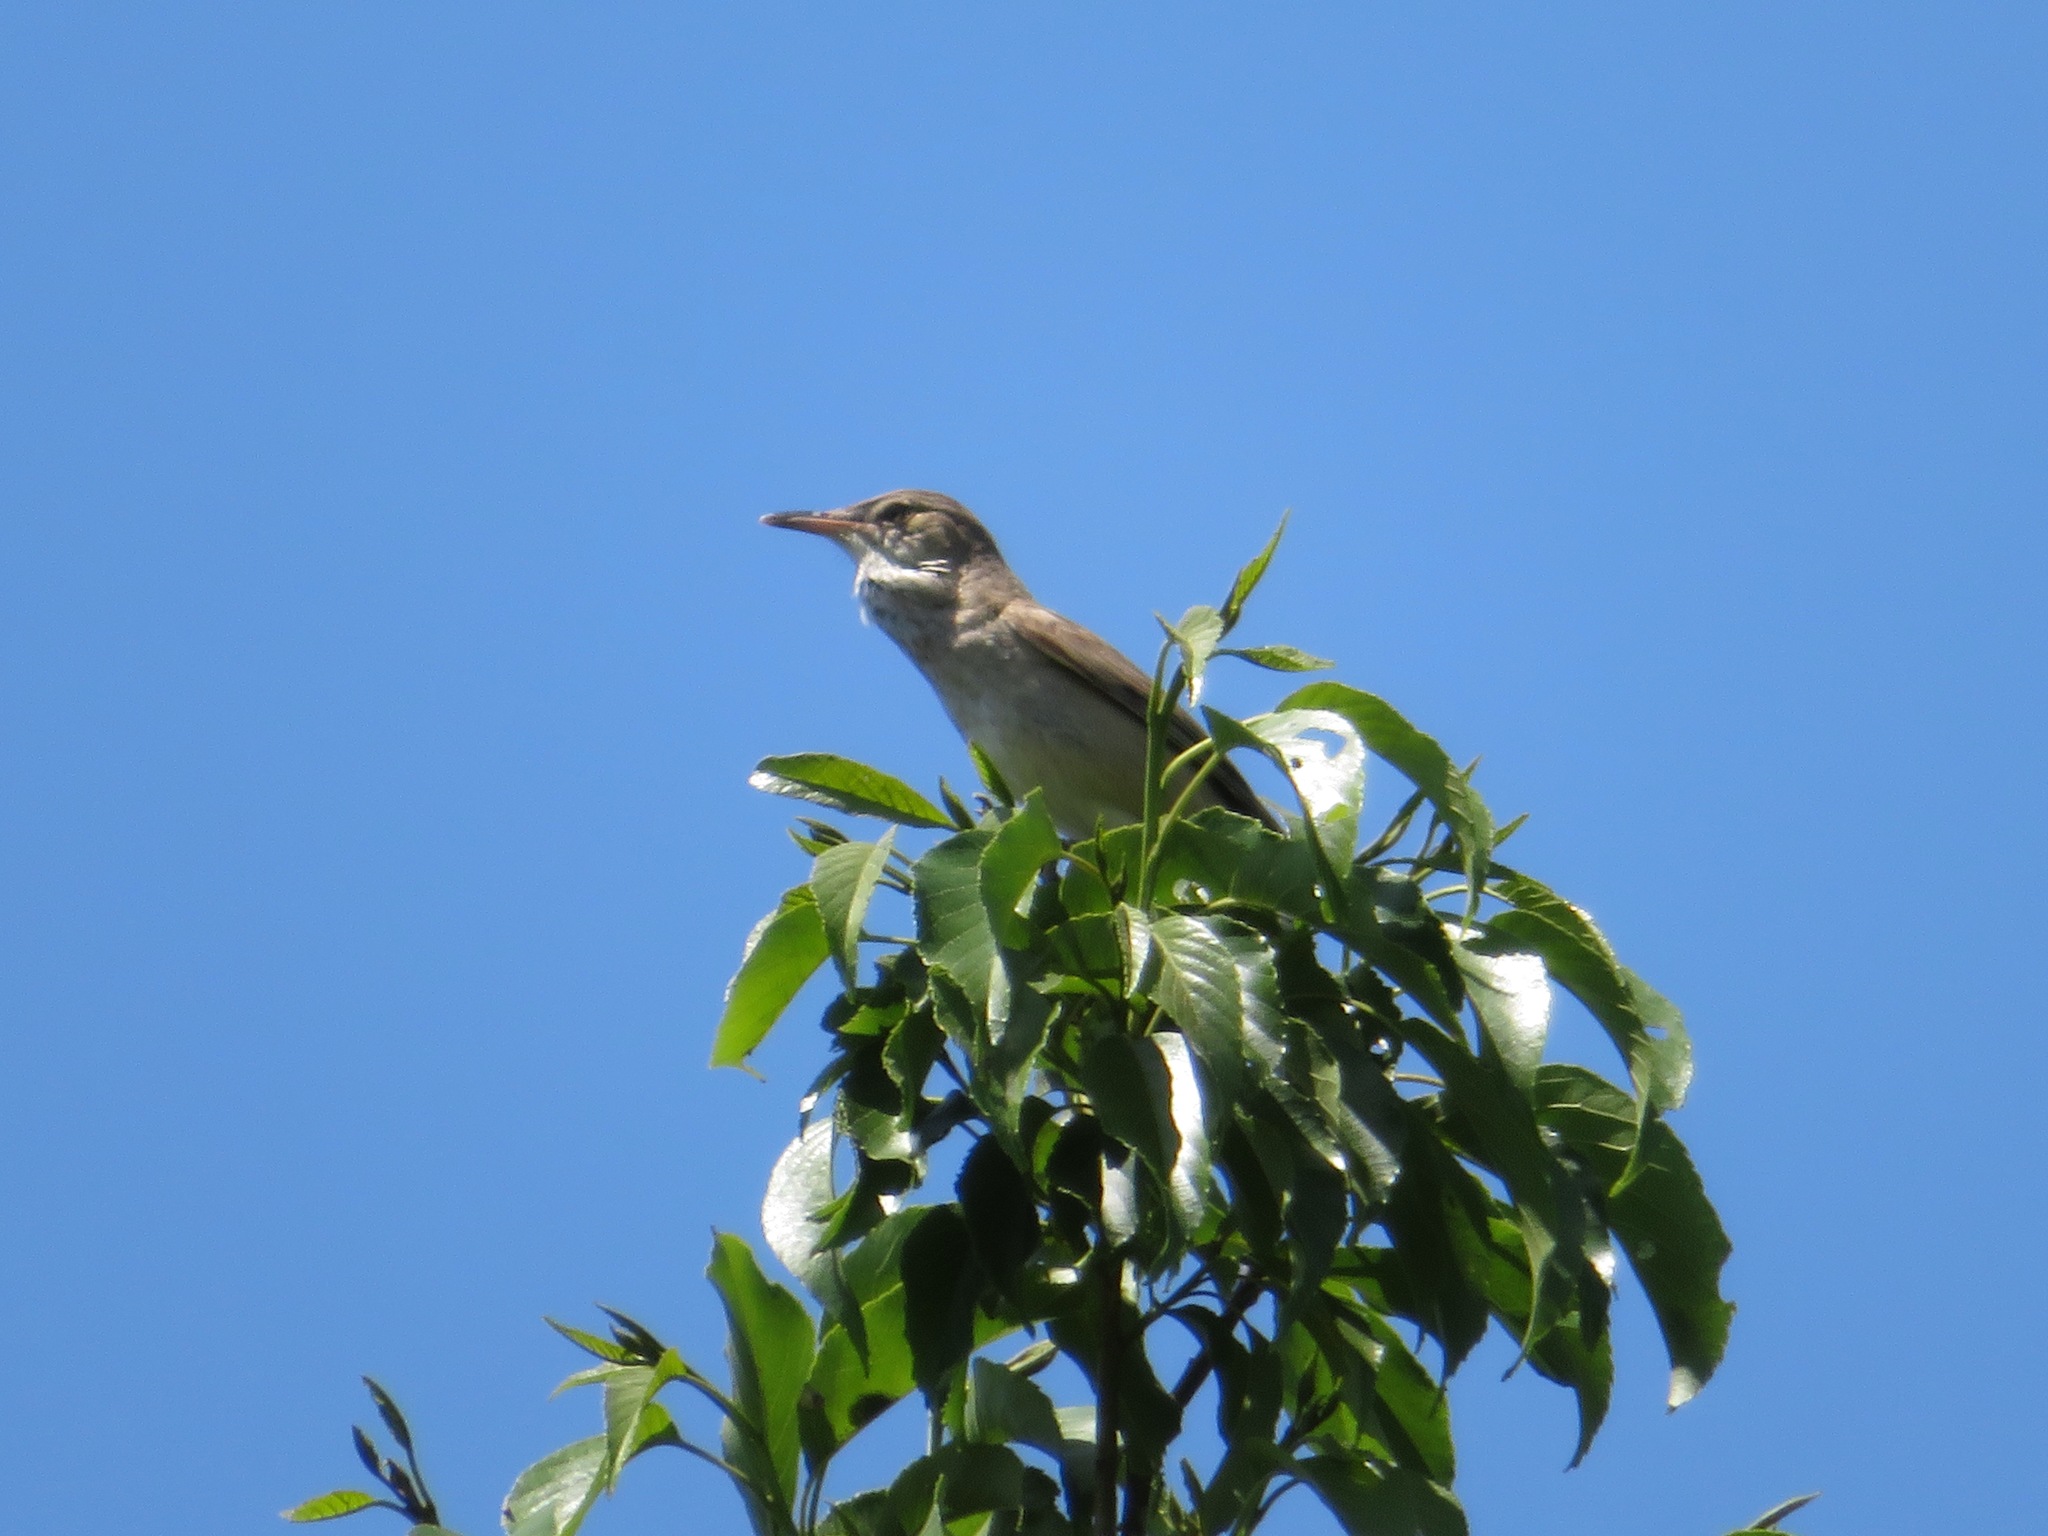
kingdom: Animalia
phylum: Chordata
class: Aves
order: Passeriformes
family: Acrocephalidae
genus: Acrocephalus
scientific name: Acrocephalus orientalis
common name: Oriental reed warbler
